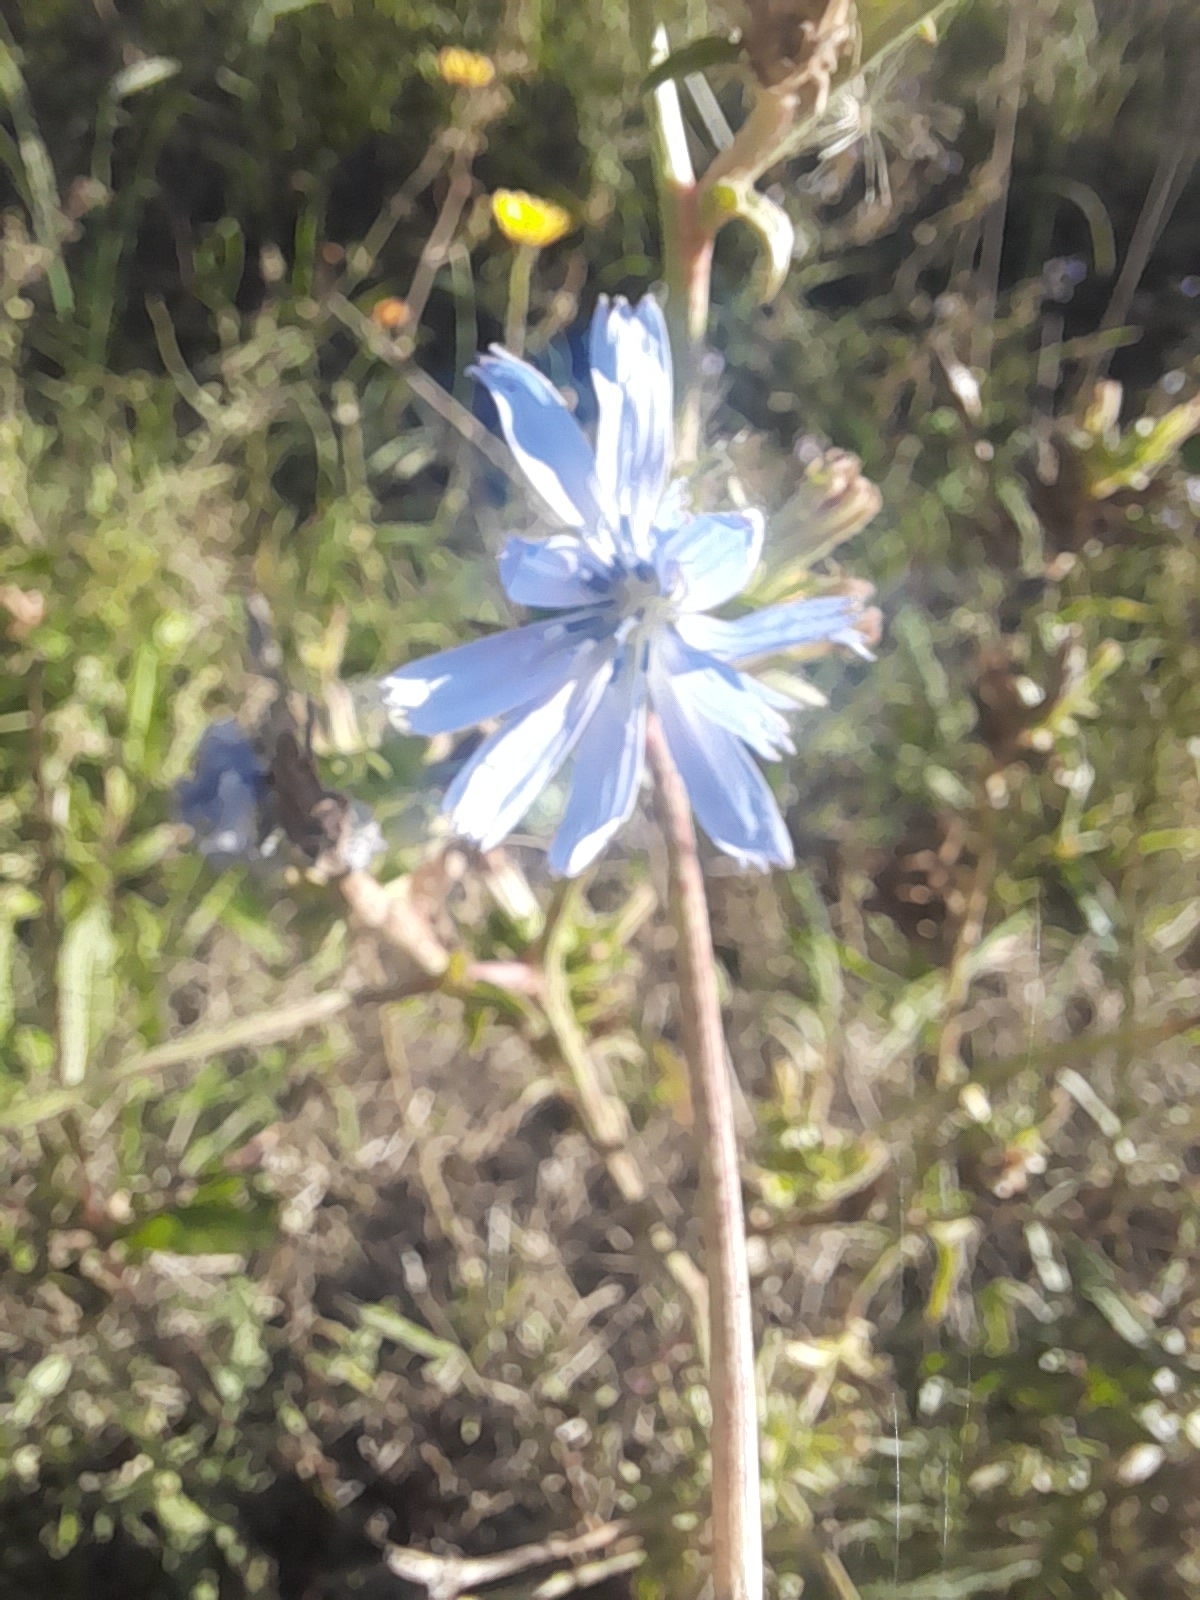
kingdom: Plantae
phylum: Tracheophyta
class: Magnoliopsida
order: Asterales
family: Asteraceae
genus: Cichorium
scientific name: Cichorium intybus
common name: Chicory
